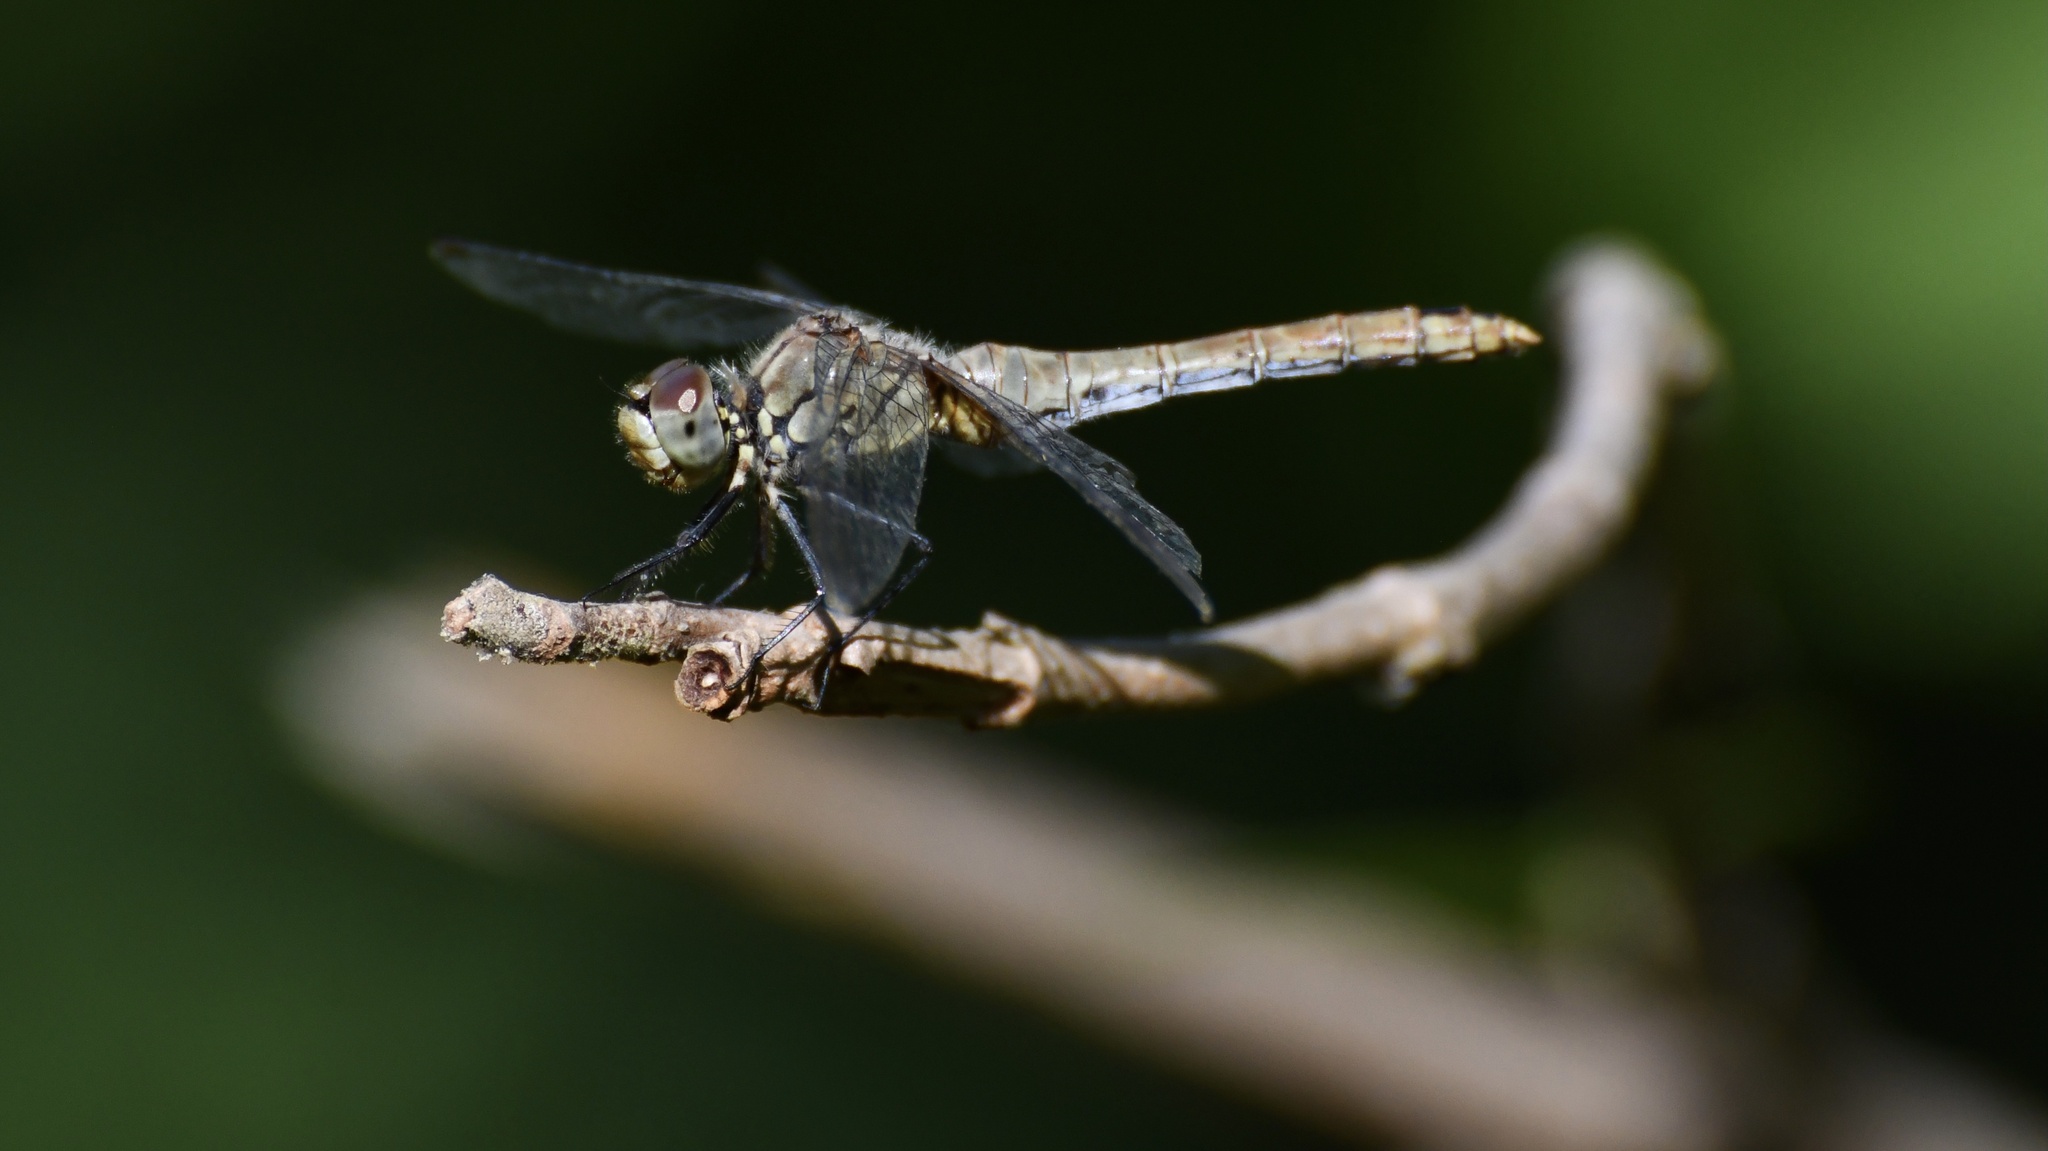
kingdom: Animalia
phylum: Arthropoda
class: Insecta
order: Odonata
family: Libellulidae
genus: Sympetrum
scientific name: Sympetrum sanguineum
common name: Ruddy darter
